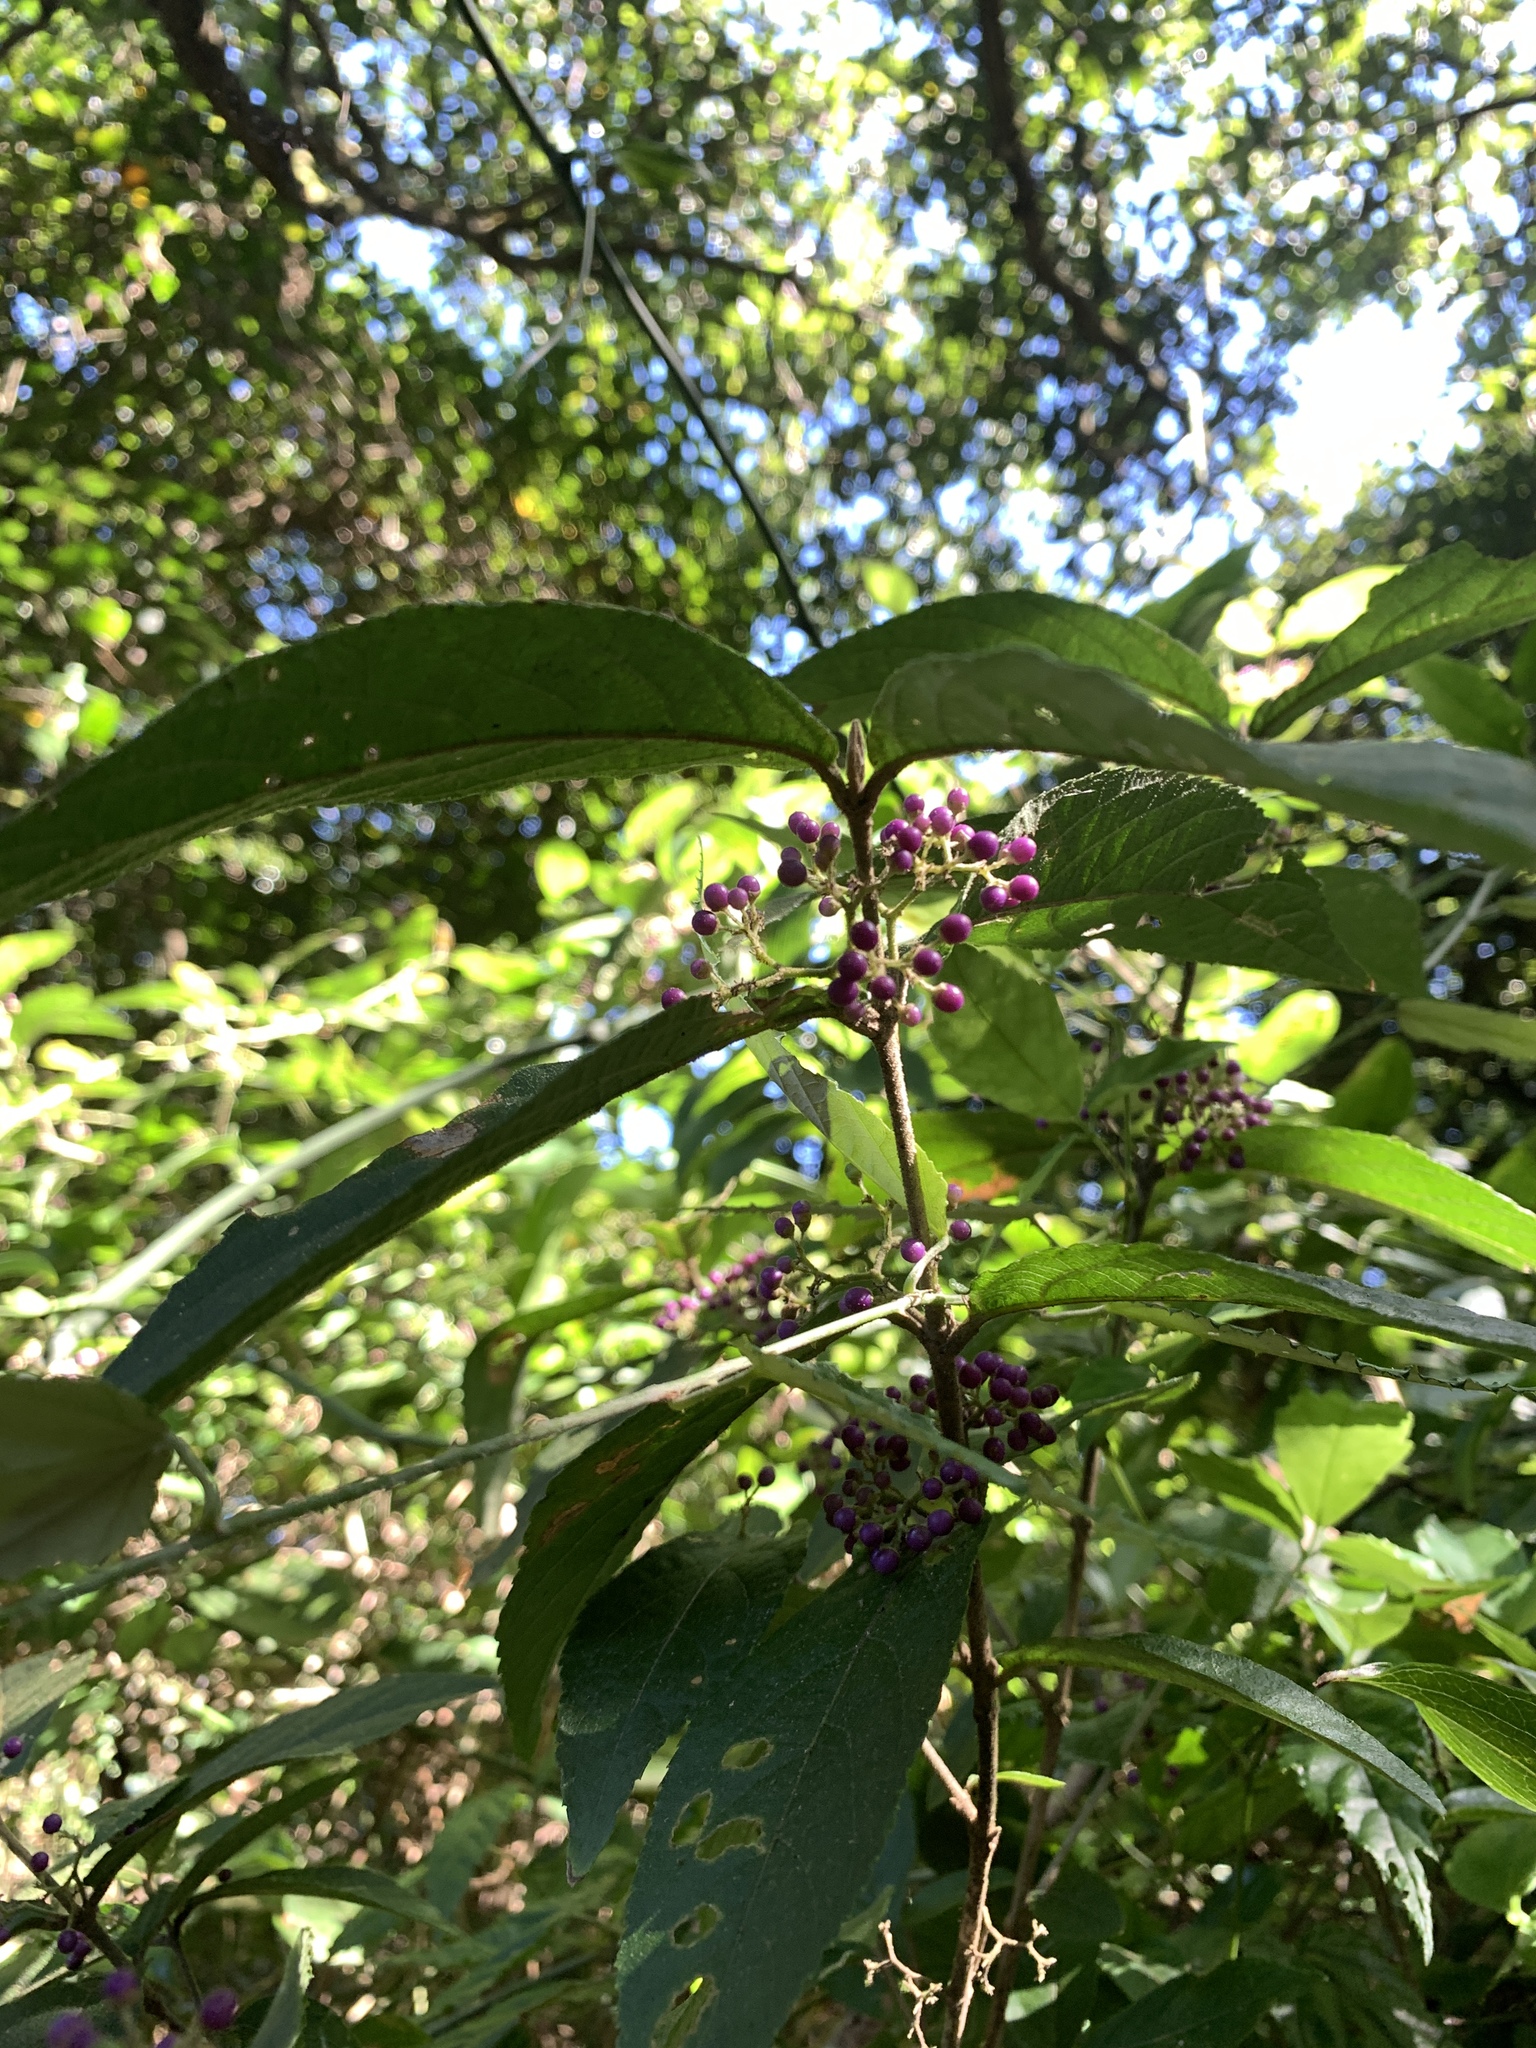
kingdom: Plantae
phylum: Tracheophyta
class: Magnoliopsida
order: Lamiales
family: Lamiaceae
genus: Callicarpa
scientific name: Callicarpa tikusikensis
